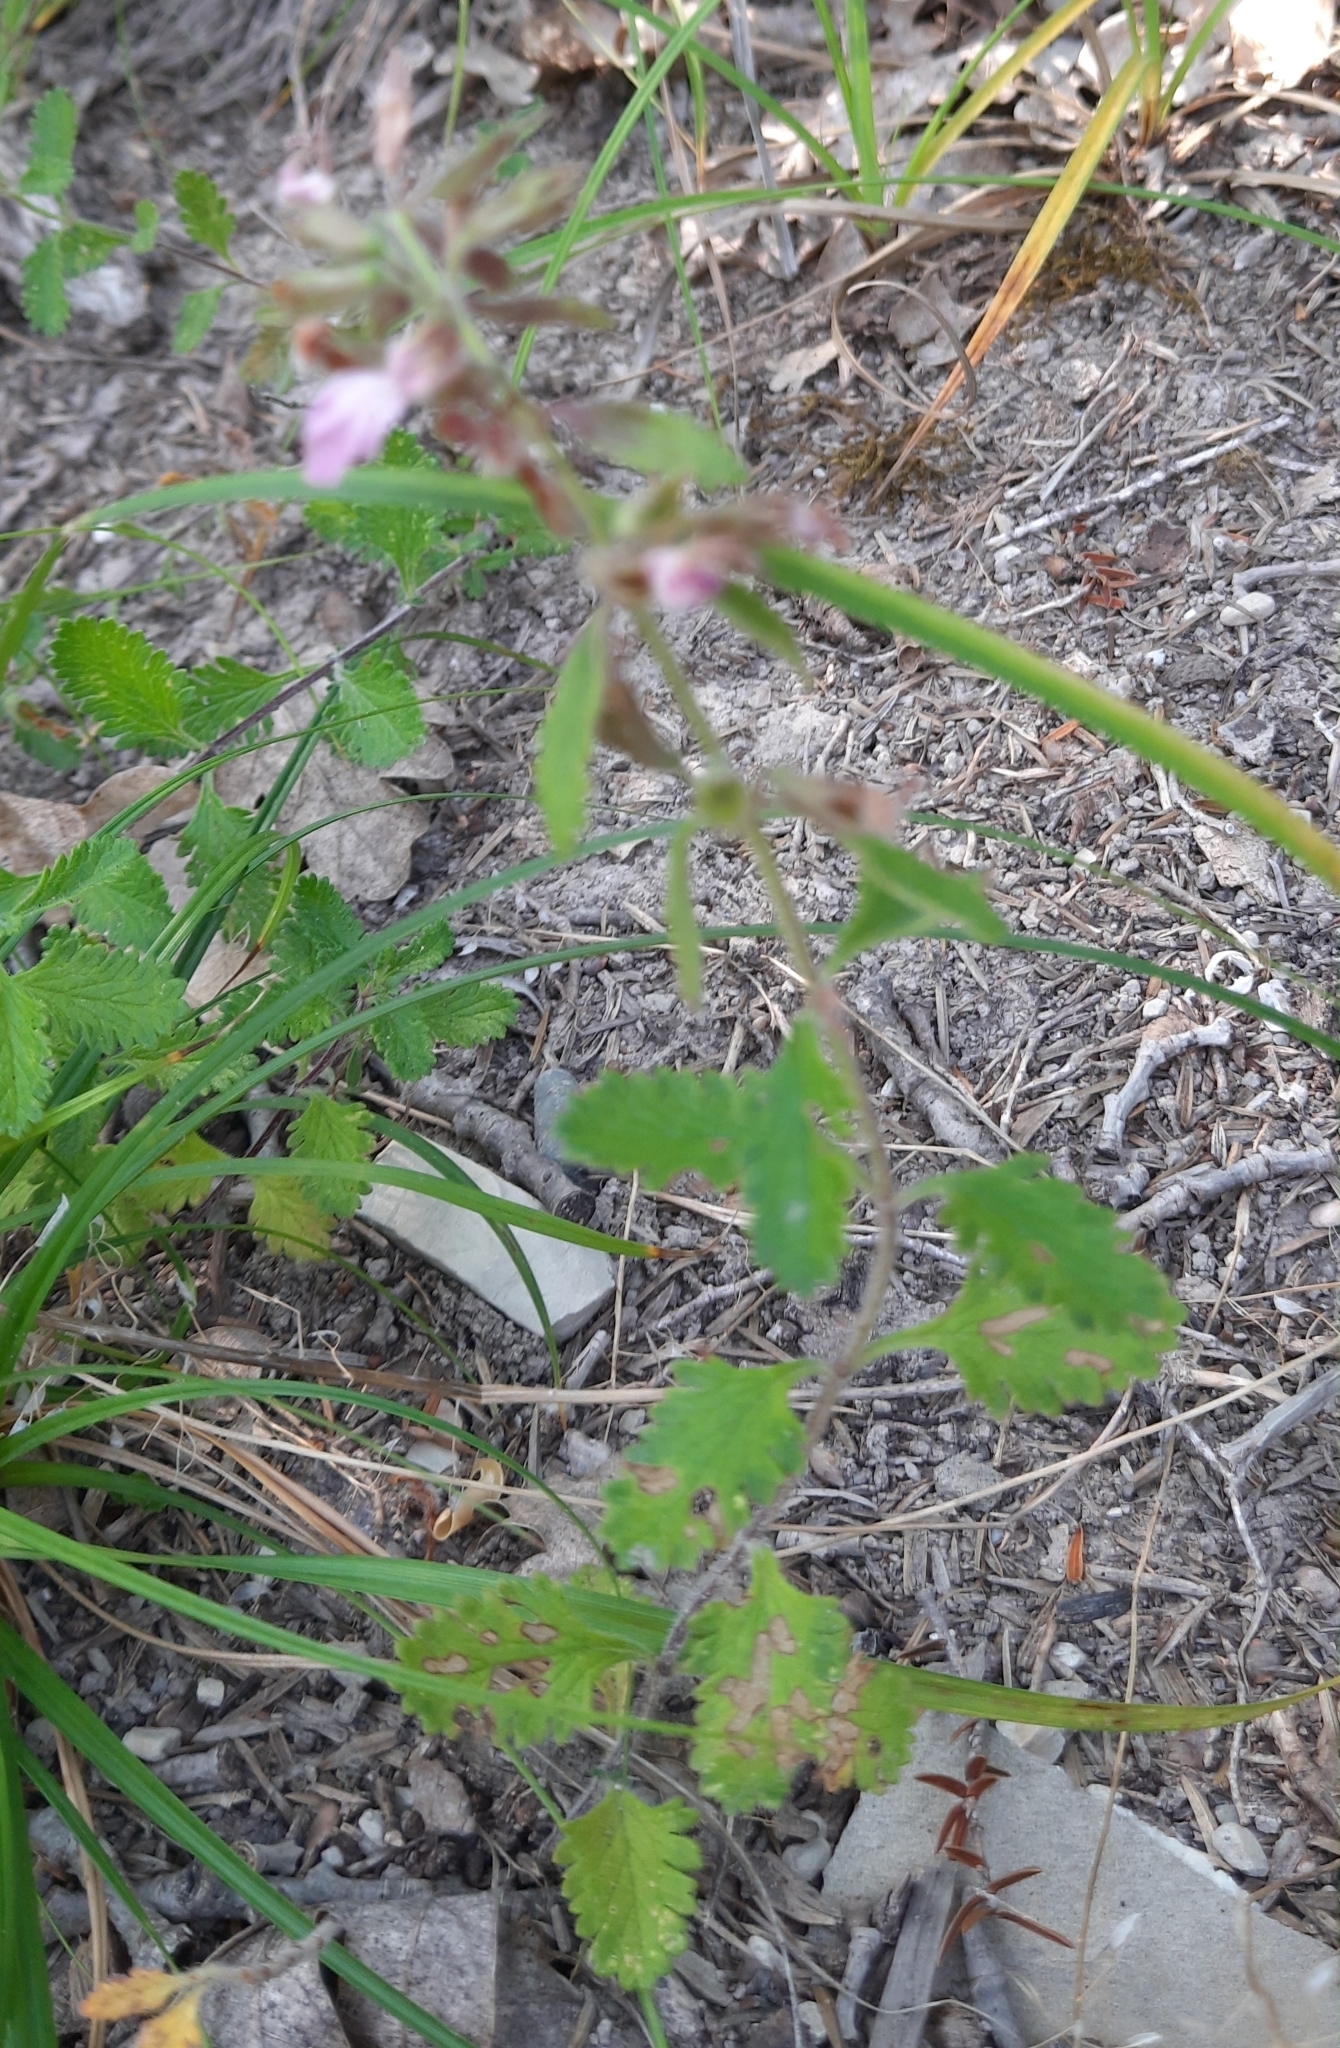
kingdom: Plantae
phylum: Tracheophyta
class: Magnoliopsida
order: Lamiales
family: Lamiaceae
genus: Teucrium
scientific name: Teucrium chamaedrys
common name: Wall germander
